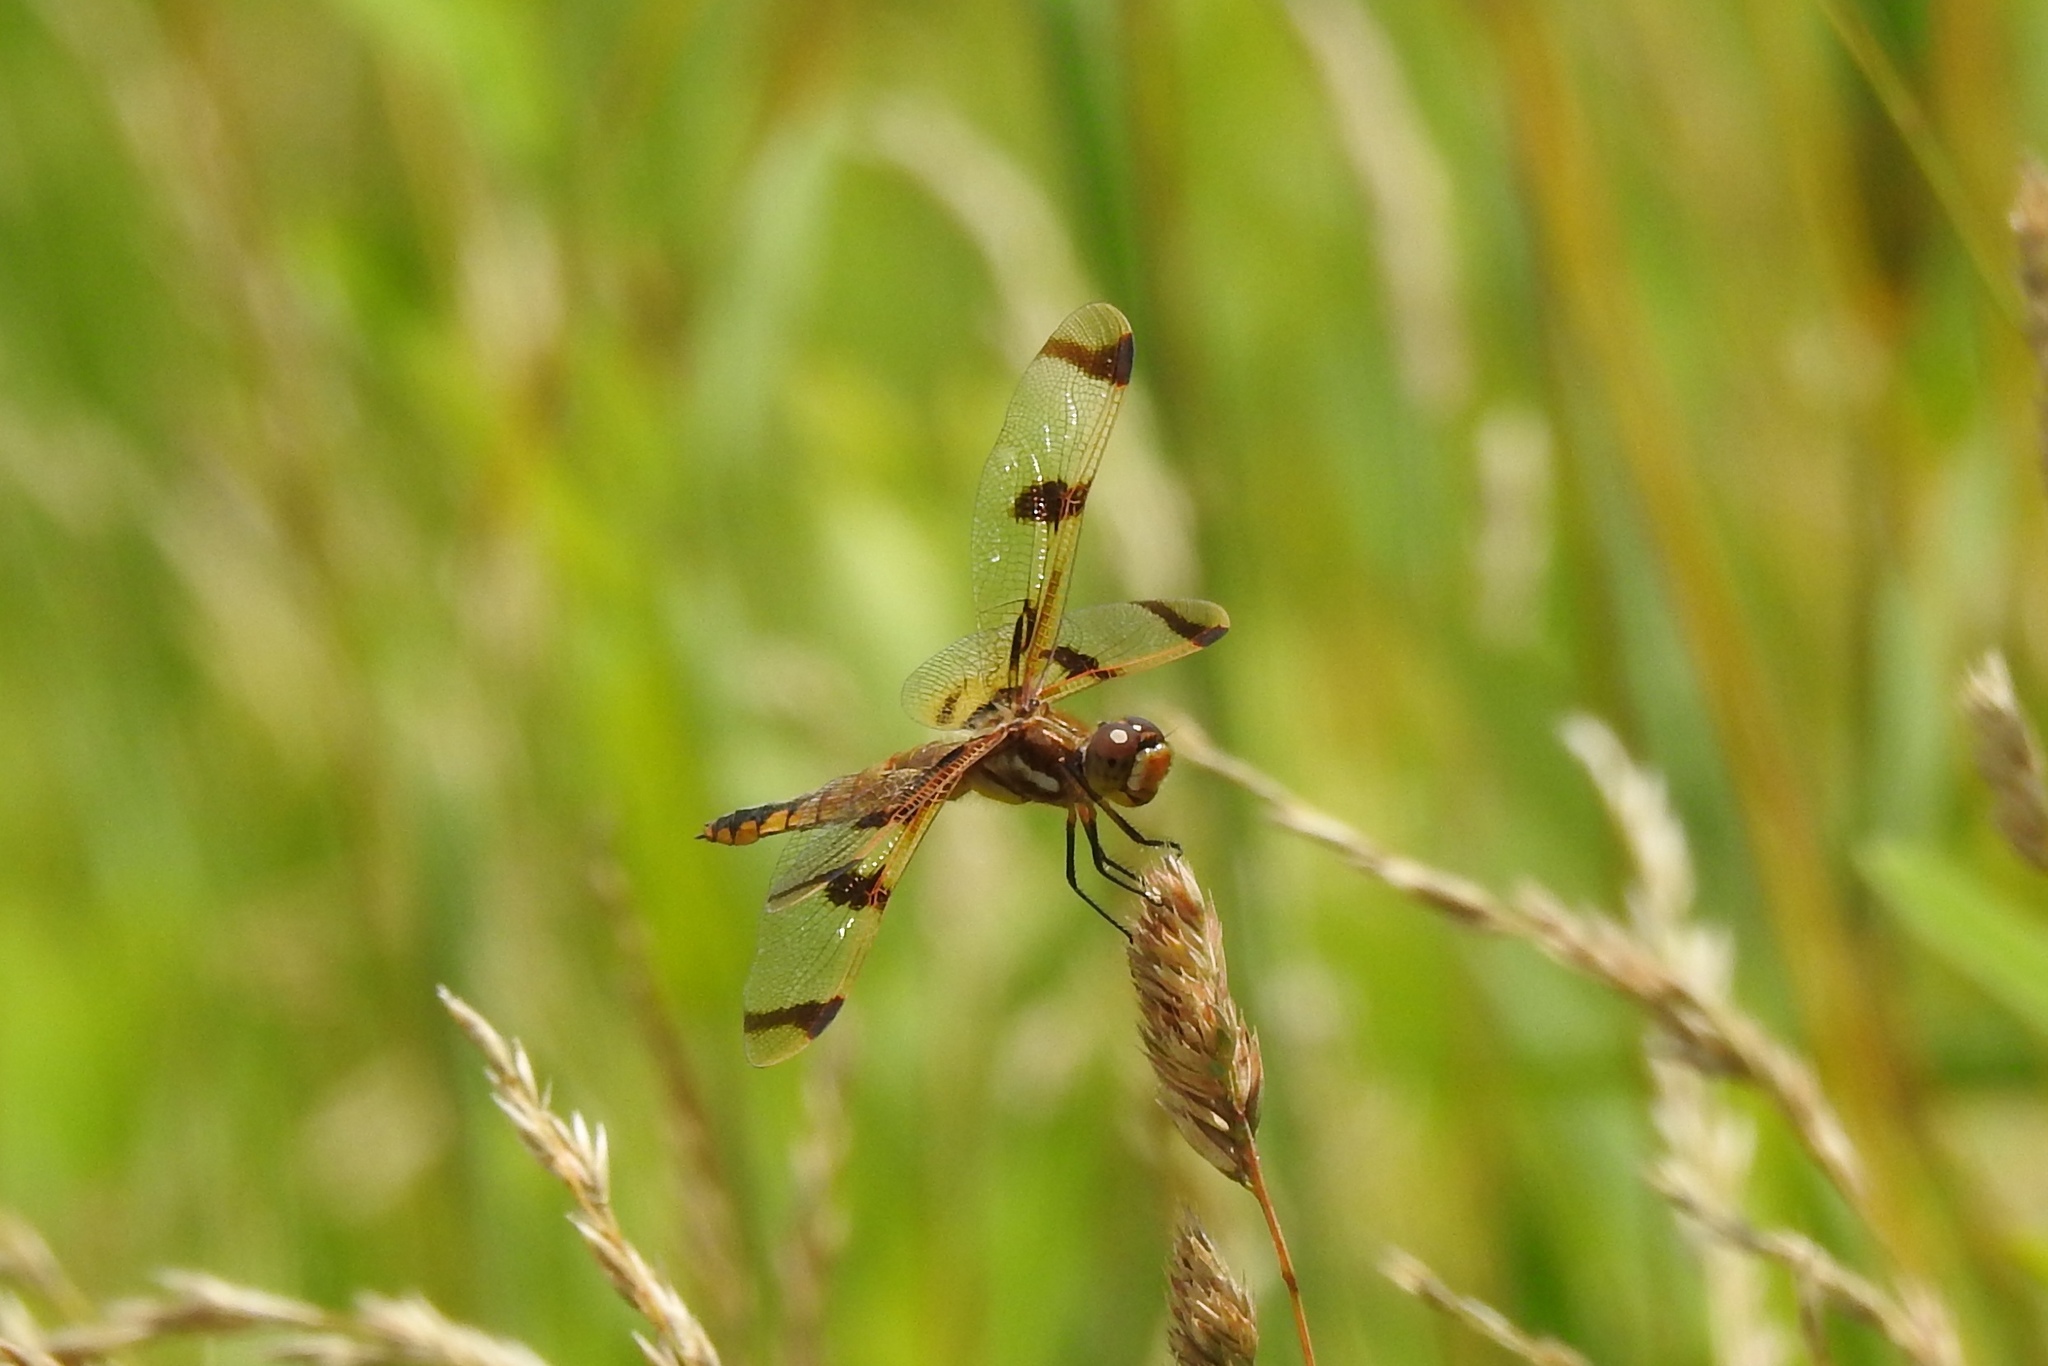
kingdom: Animalia
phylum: Arthropoda
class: Insecta
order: Odonata
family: Libellulidae
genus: Libellula
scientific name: Libellula semifasciata
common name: Painted skimmer
